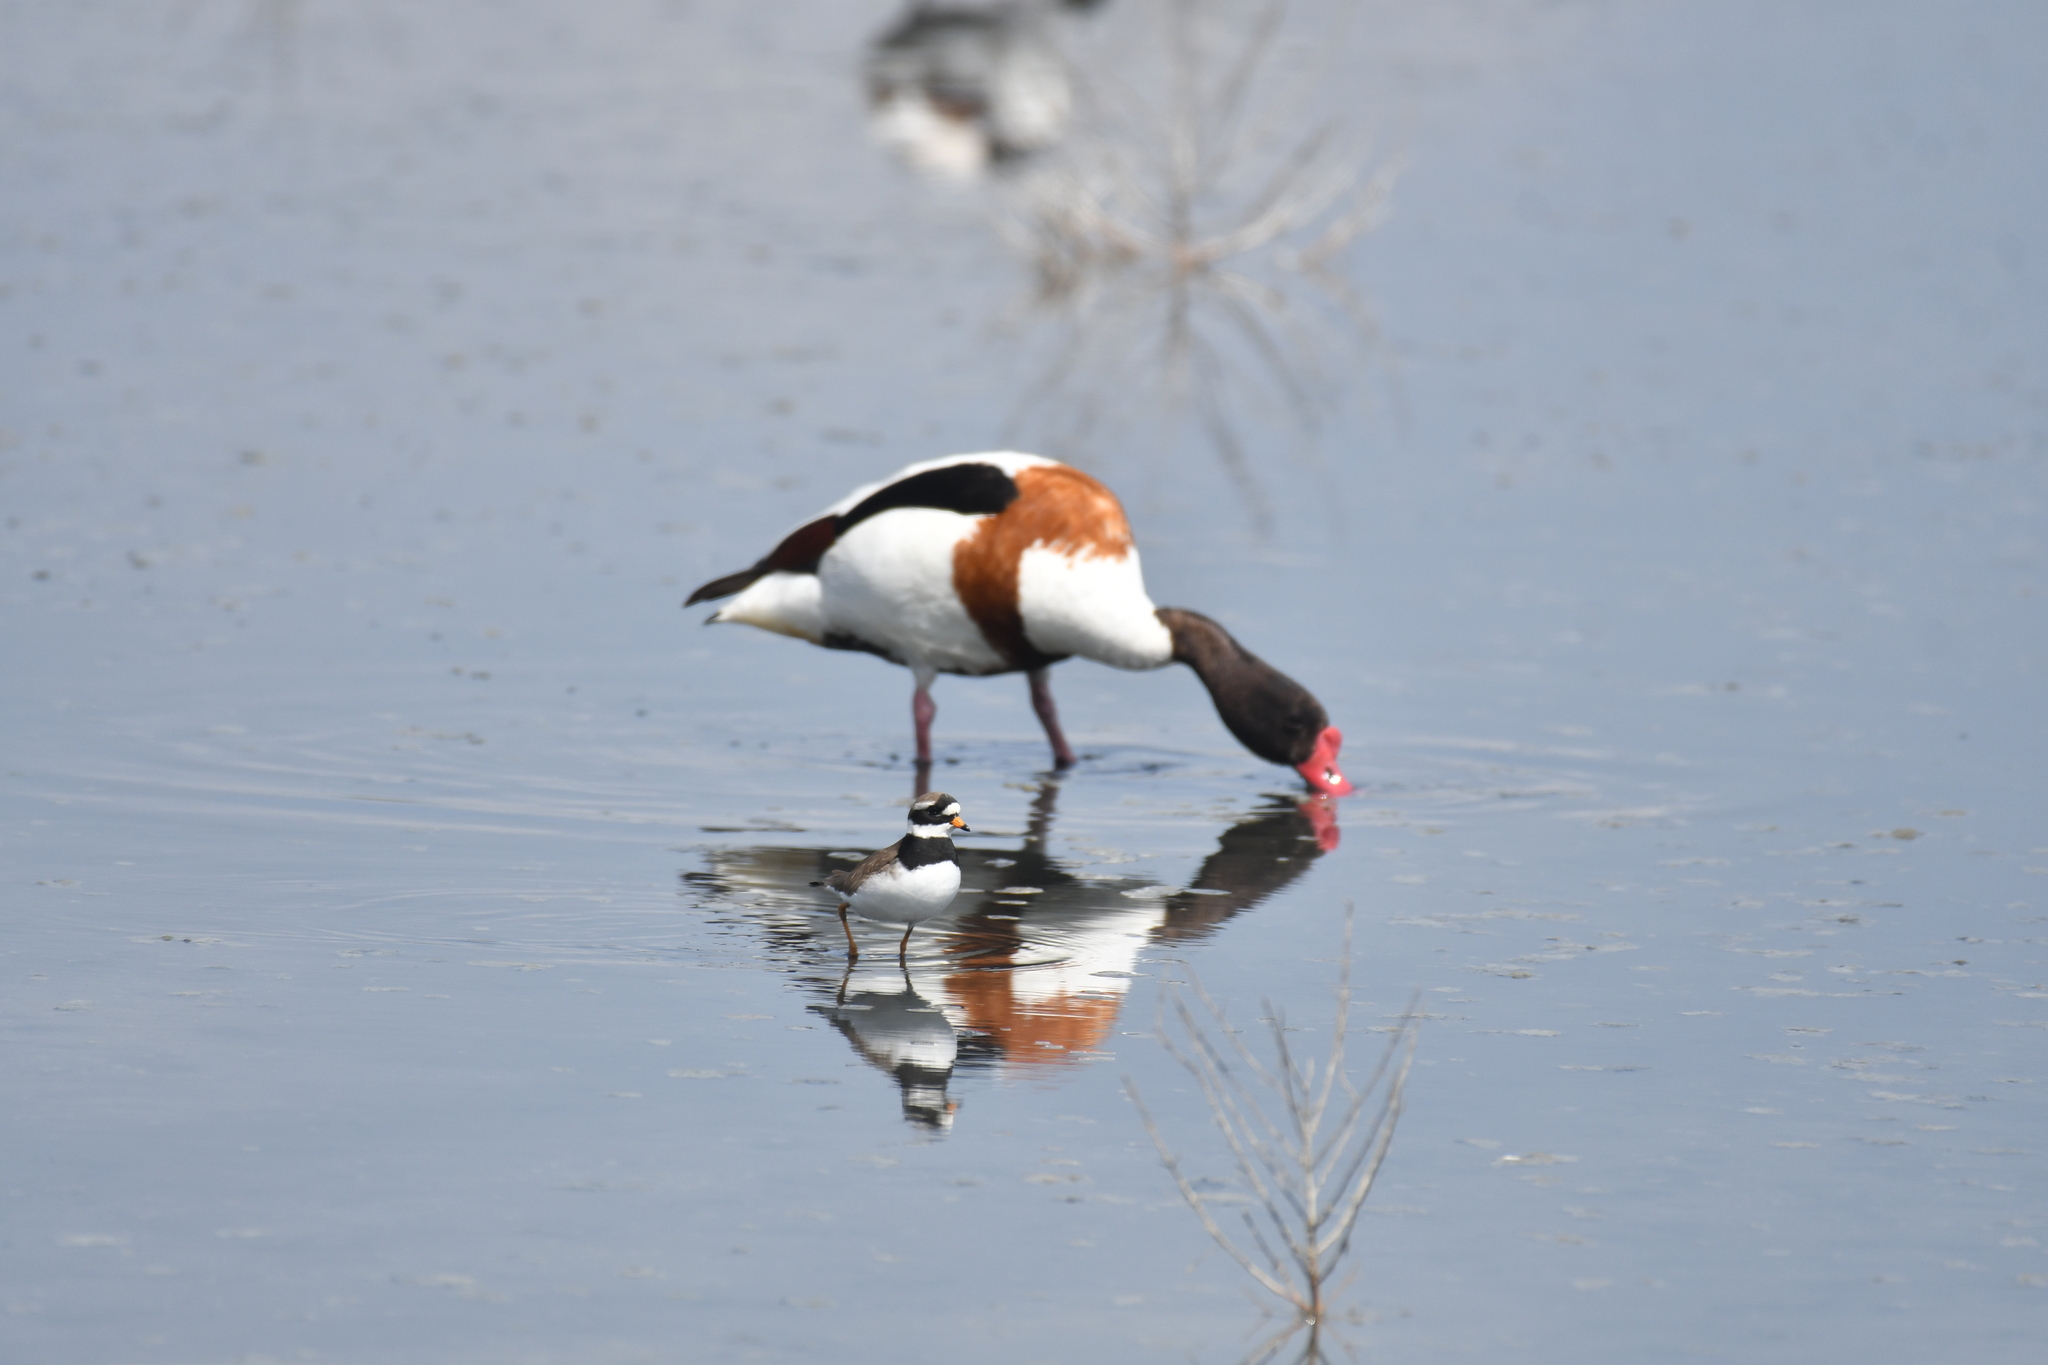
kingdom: Animalia
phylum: Chordata
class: Aves
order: Anseriformes
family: Anatidae
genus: Tadorna
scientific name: Tadorna tadorna
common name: Common shelduck
